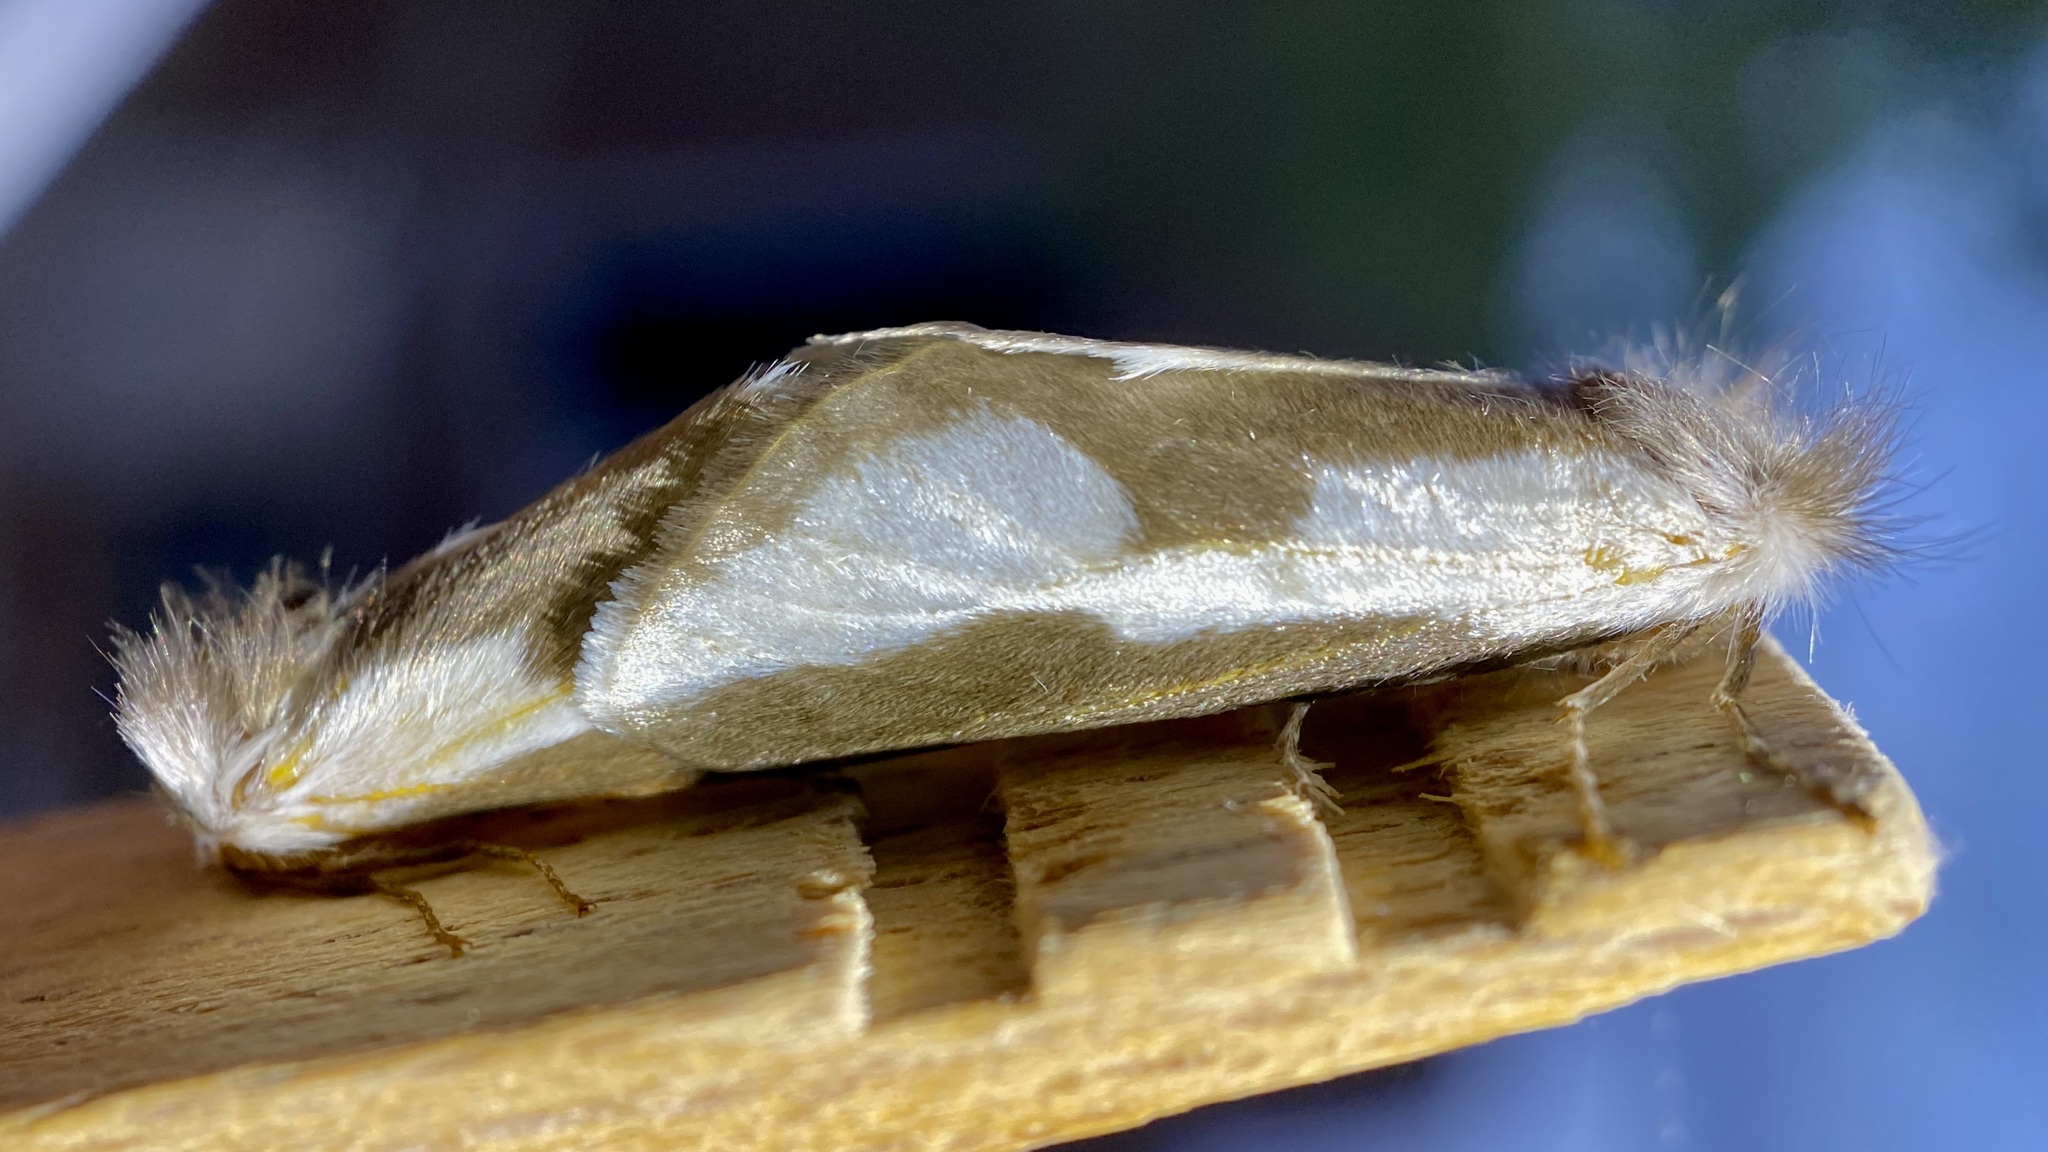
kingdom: Animalia
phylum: Arthropoda
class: Insecta
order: Lepidoptera
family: Megalopygidae
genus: Norape
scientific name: Norape tener
